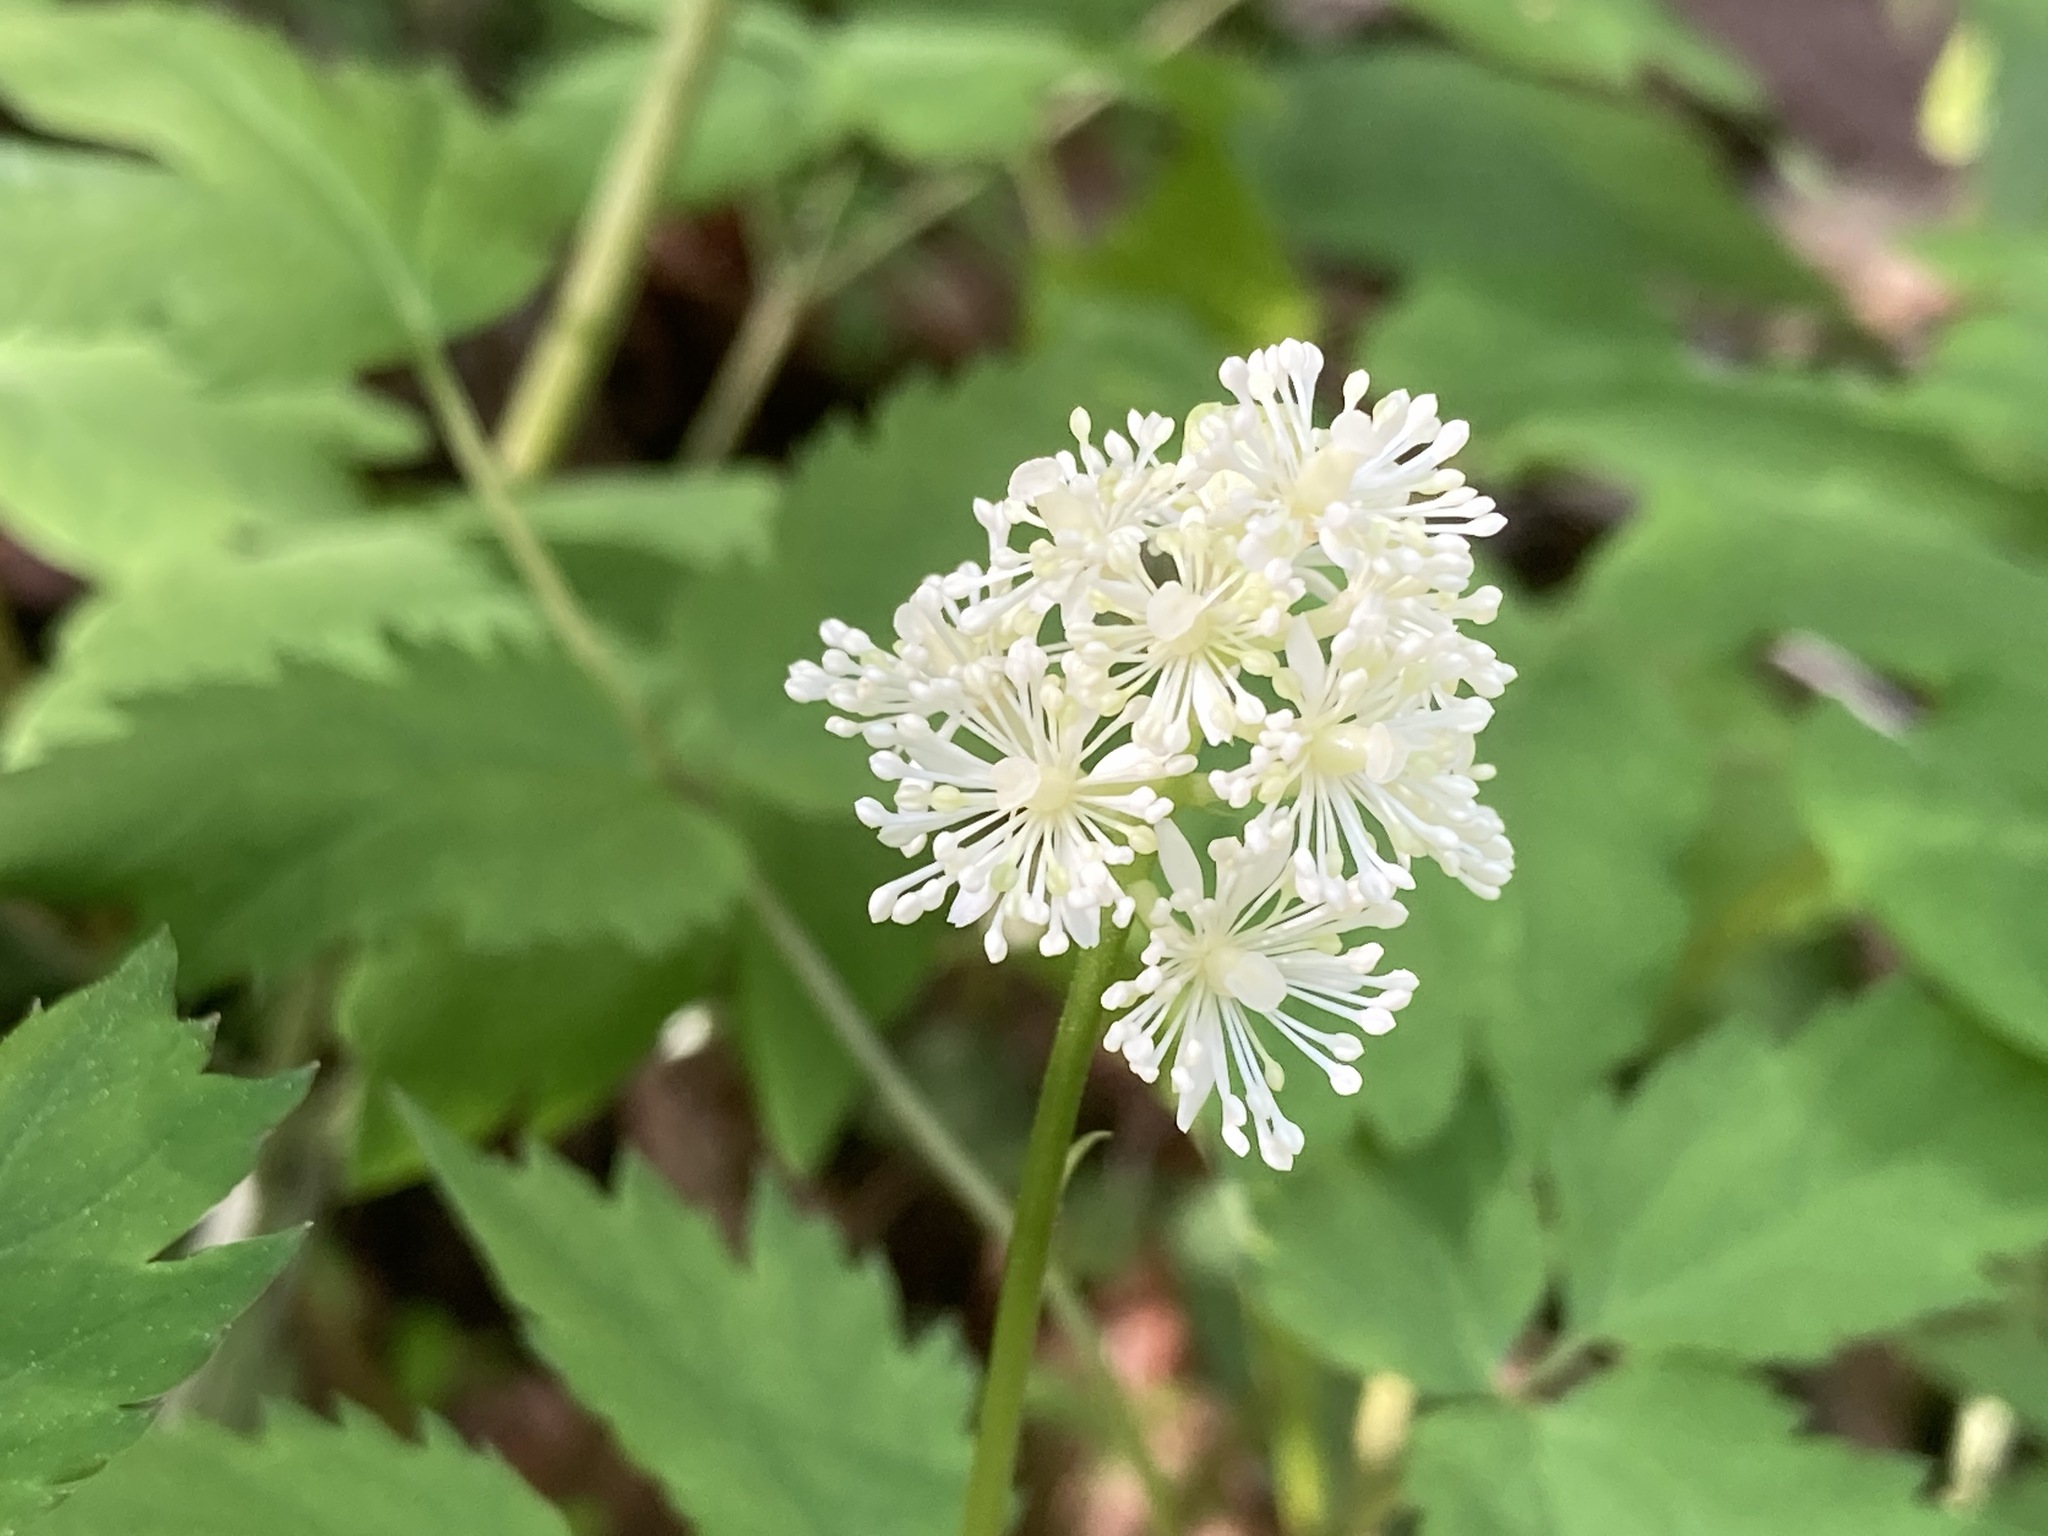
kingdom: Plantae
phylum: Tracheophyta
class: Magnoliopsida
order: Ranunculales
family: Ranunculaceae
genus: Actaea
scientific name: Actaea pachypoda
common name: Doll's-eyes
